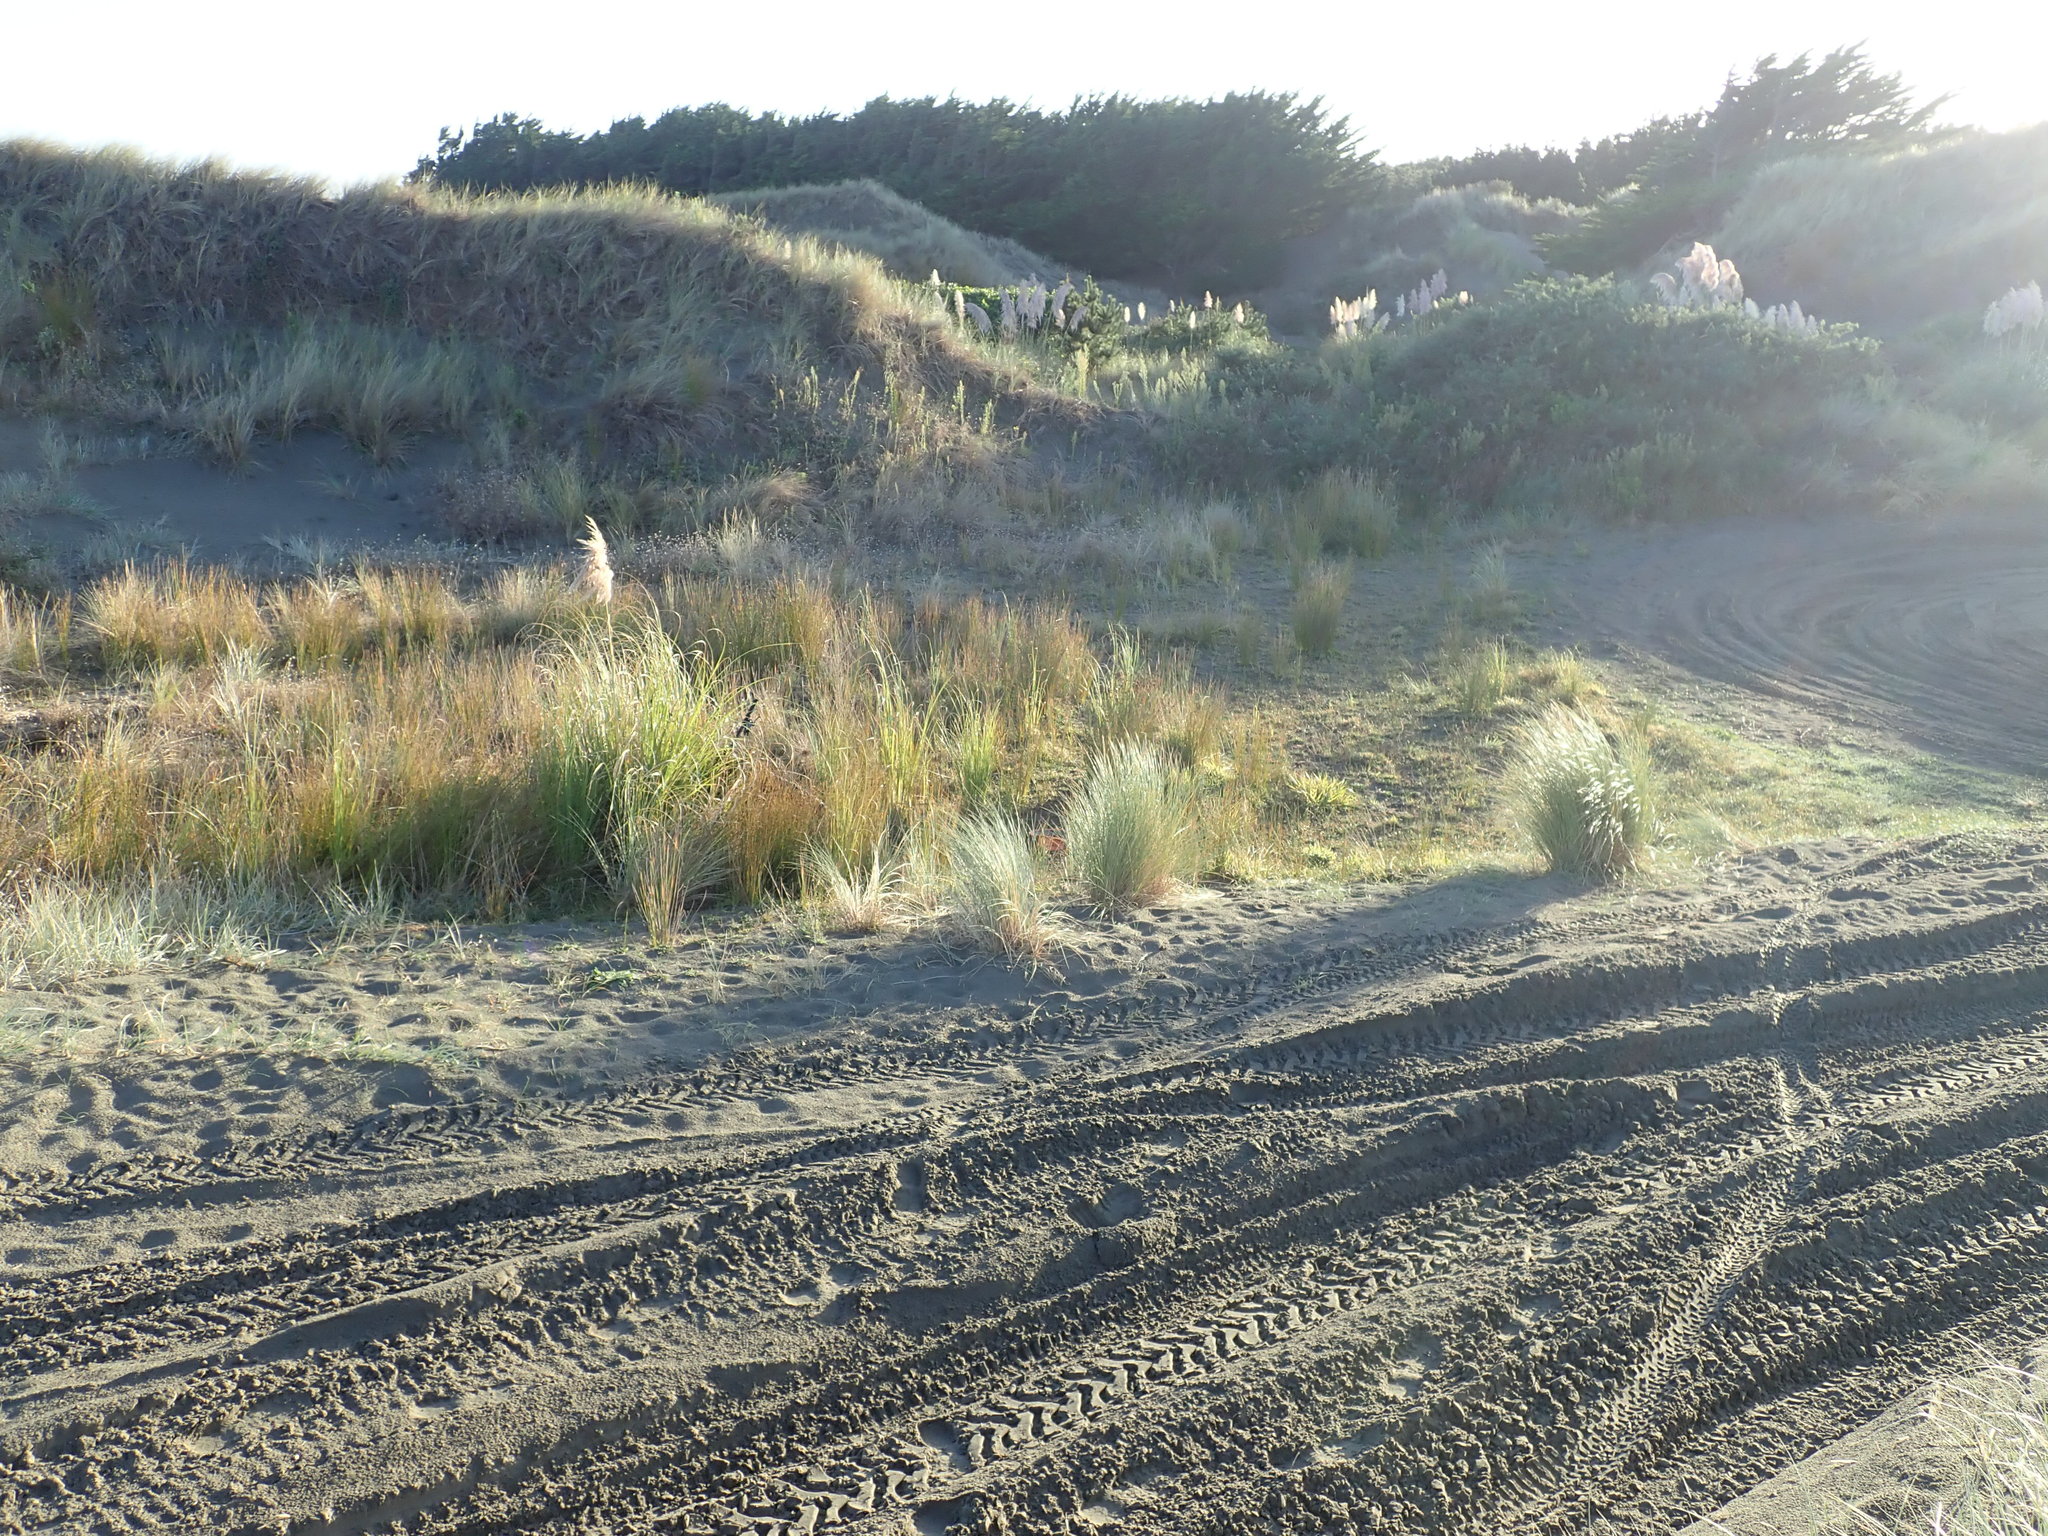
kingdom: Plantae
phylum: Tracheophyta
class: Magnoliopsida
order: Asterales
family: Campanulaceae
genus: Lobelia
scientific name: Lobelia anceps
